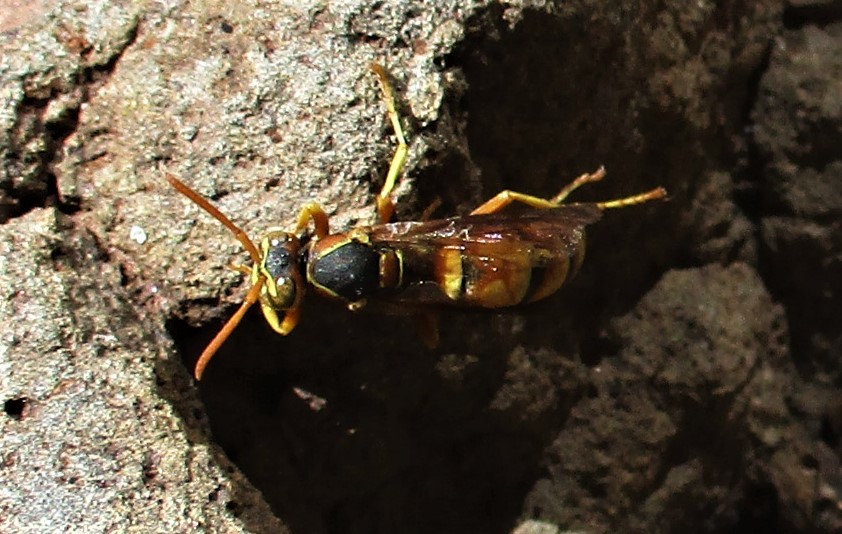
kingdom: Animalia
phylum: Arthropoda
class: Insecta
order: Hymenoptera
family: Eumenidae
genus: Polistes
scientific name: Polistes aurifer
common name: Paper wasp
